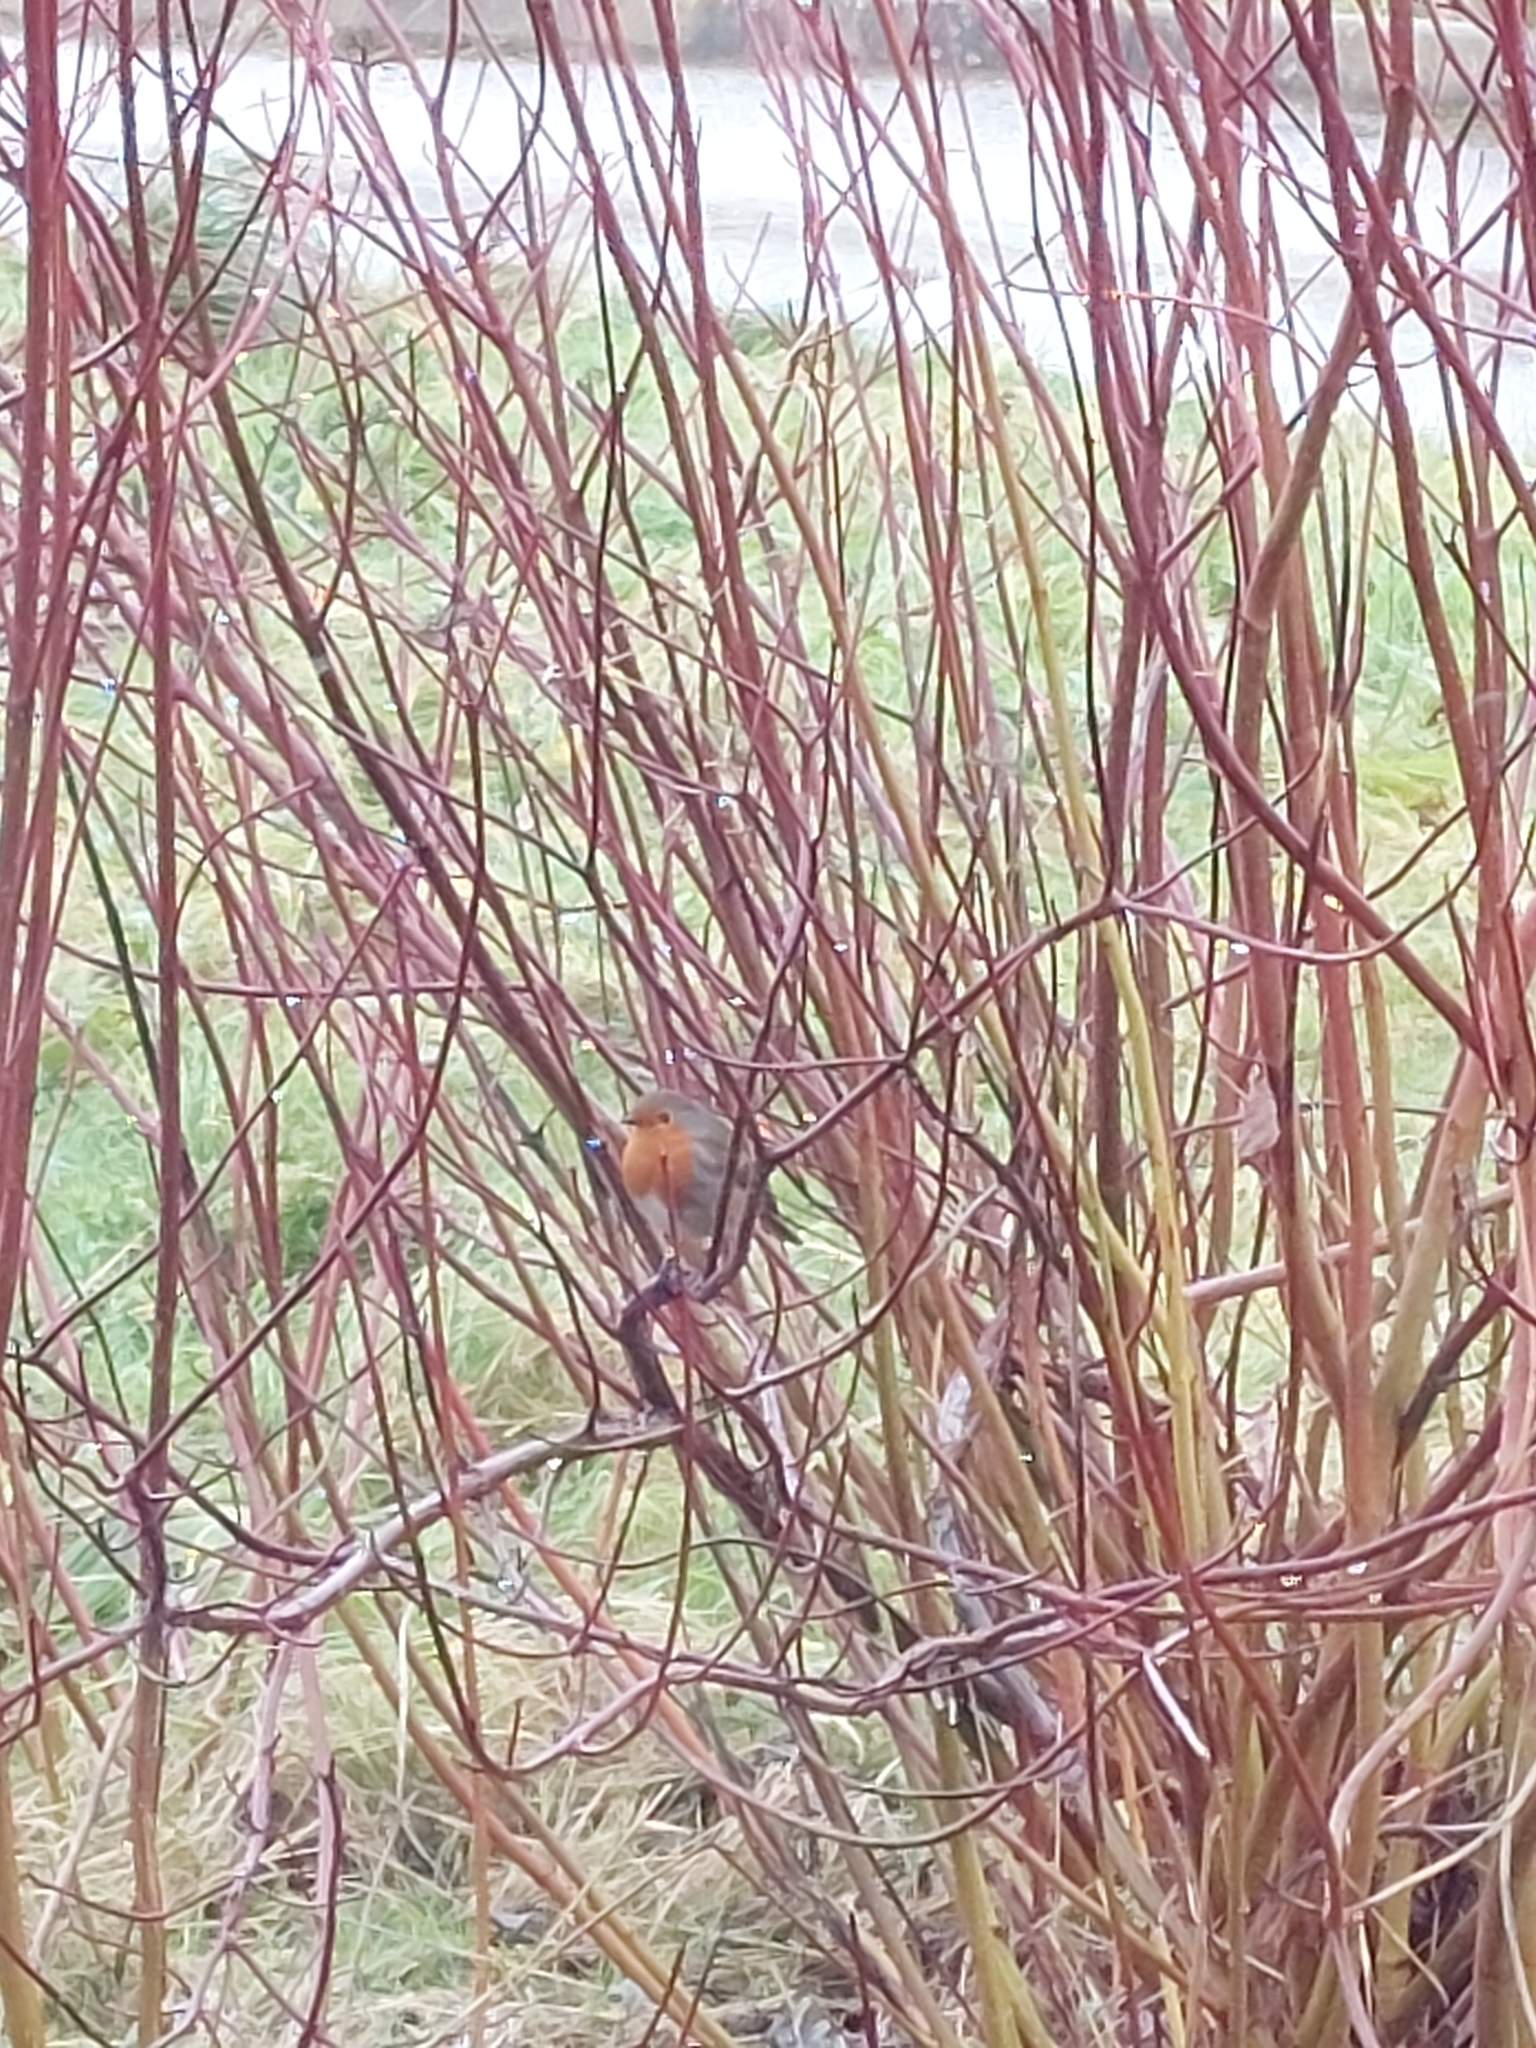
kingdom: Animalia
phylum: Chordata
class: Aves
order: Passeriformes
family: Muscicapidae
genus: Erithacus
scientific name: Erithacus rubecula
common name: European robin
